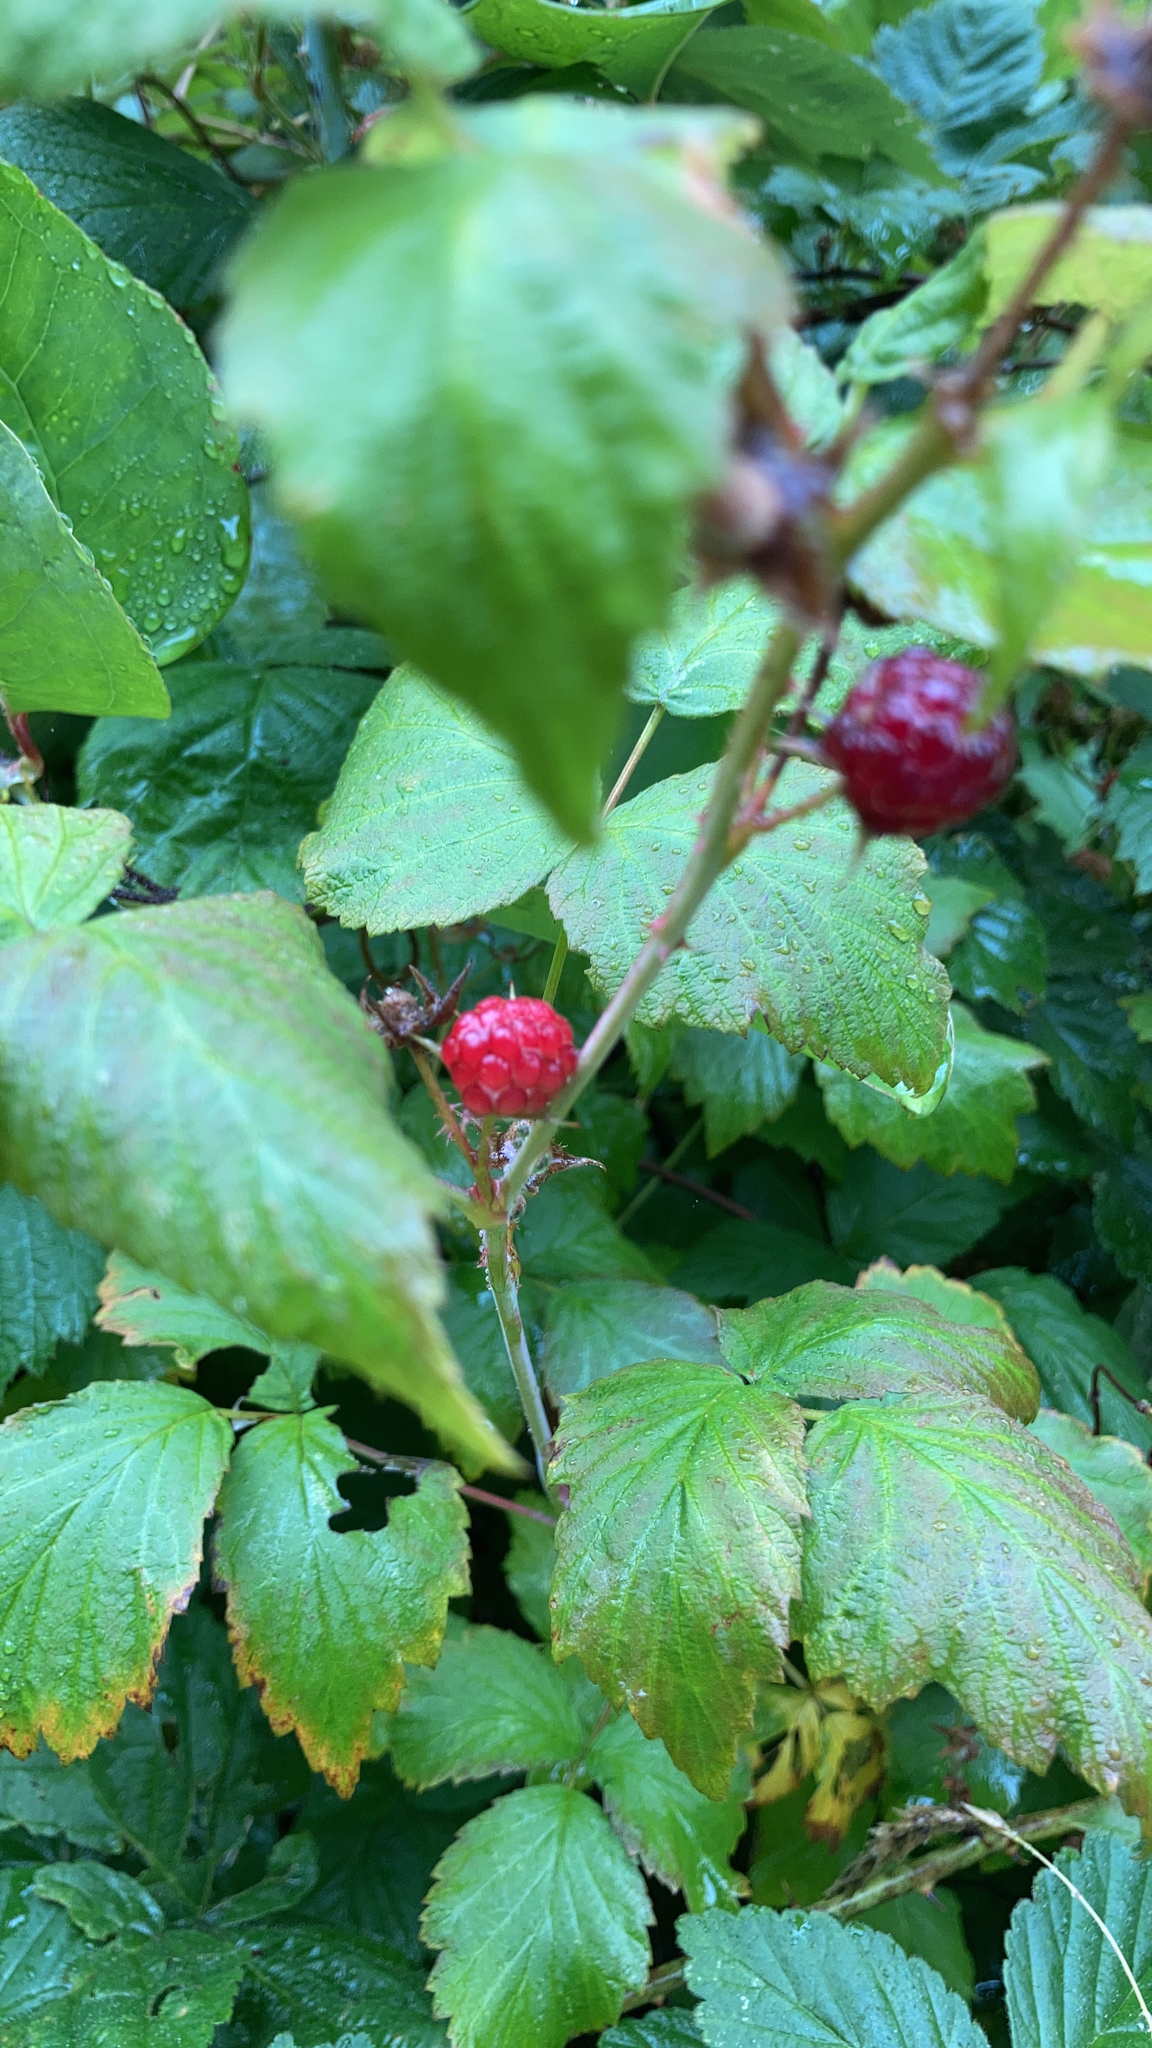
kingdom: Plantae
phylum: Tracheophyta
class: Magnoliopsida
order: Rosales
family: Rosaceae
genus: Rubus
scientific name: Rubus idaeus
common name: Raspberry
